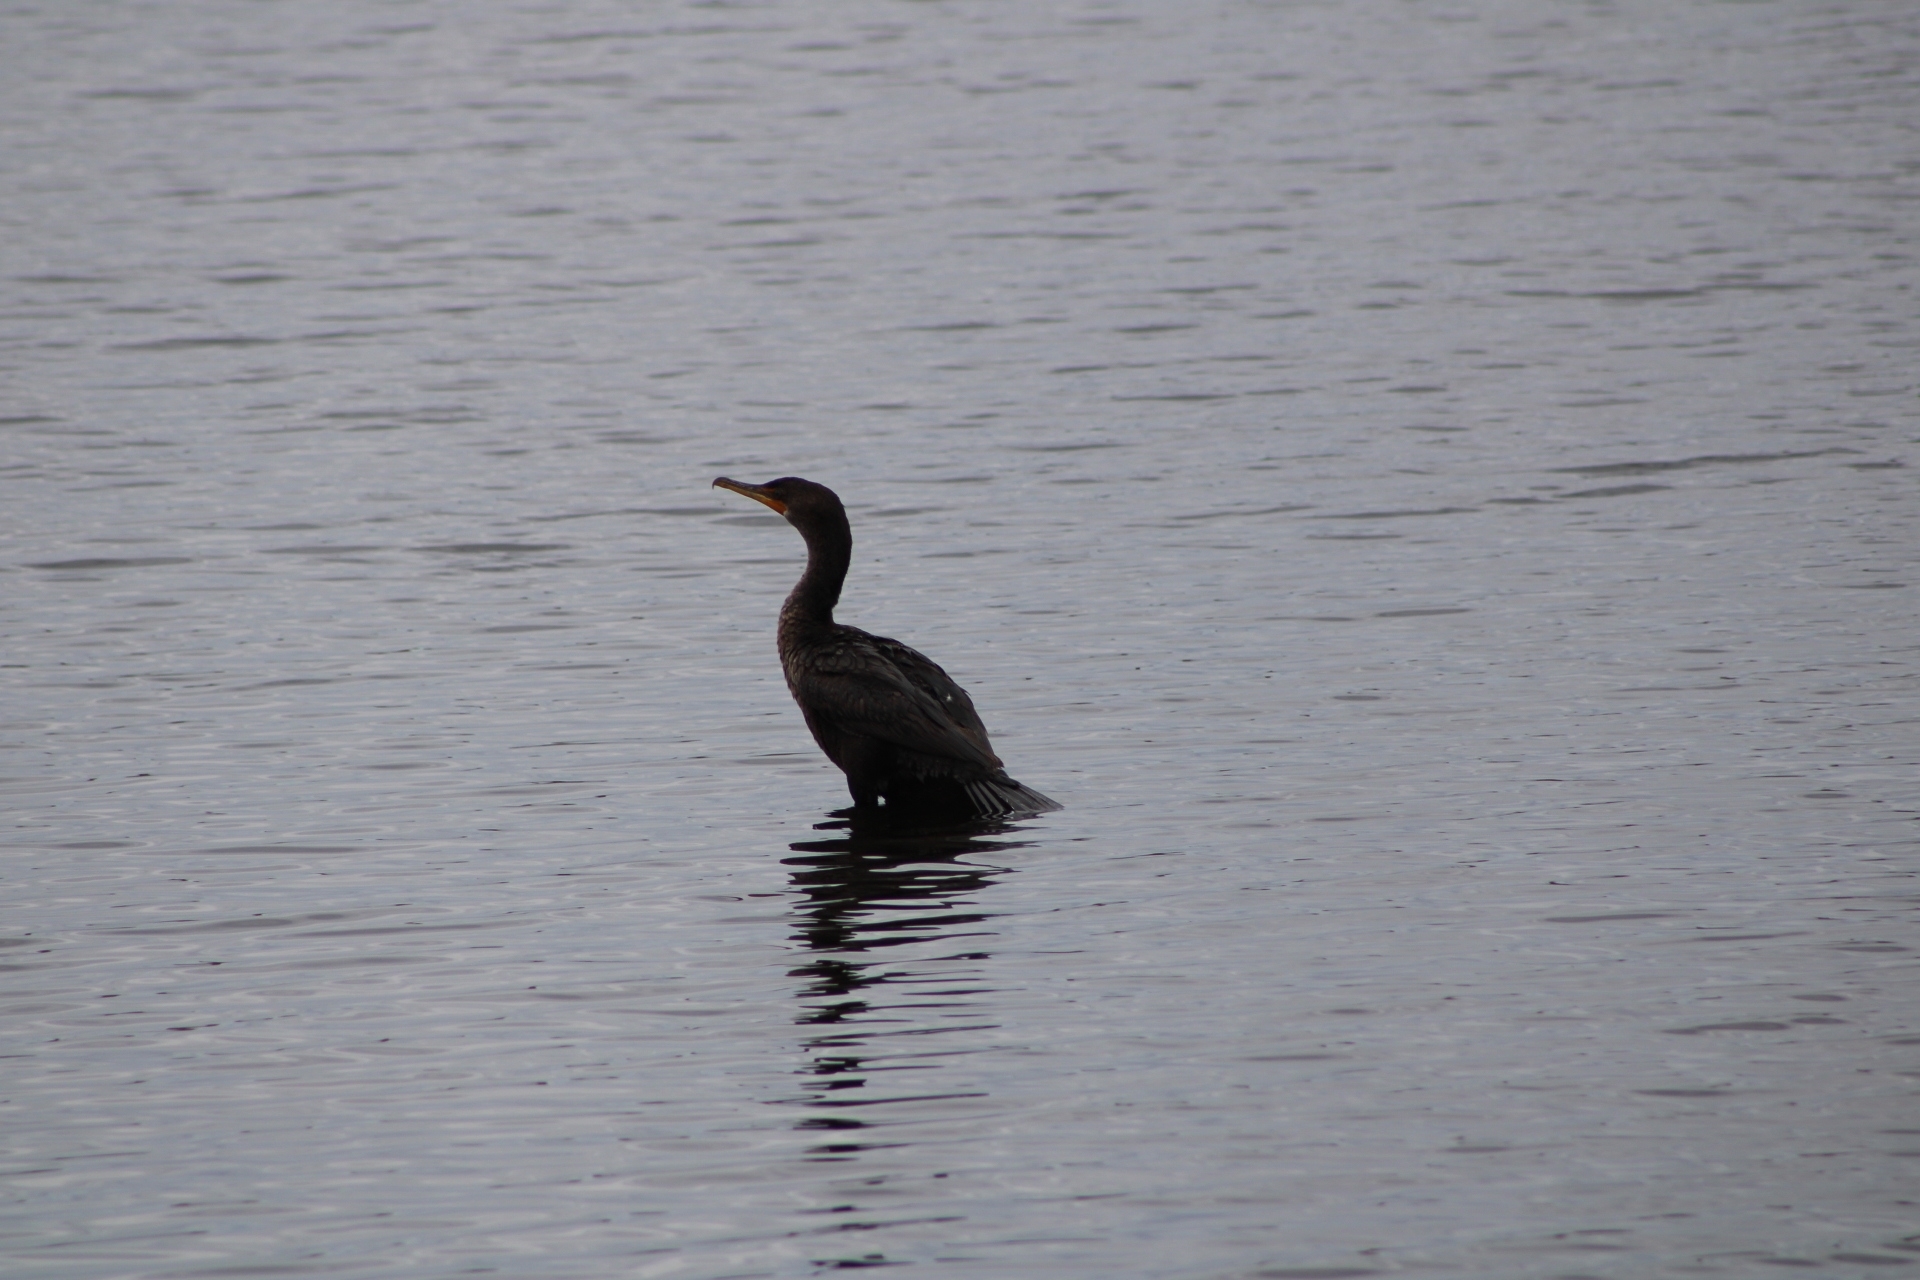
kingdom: Animalia
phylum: Chordata
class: Aves
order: Suliformes
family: Phalacrocoracidae
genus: Phalacrocorax
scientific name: Phalacrocorax auritus
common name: Double-crested cormorant
